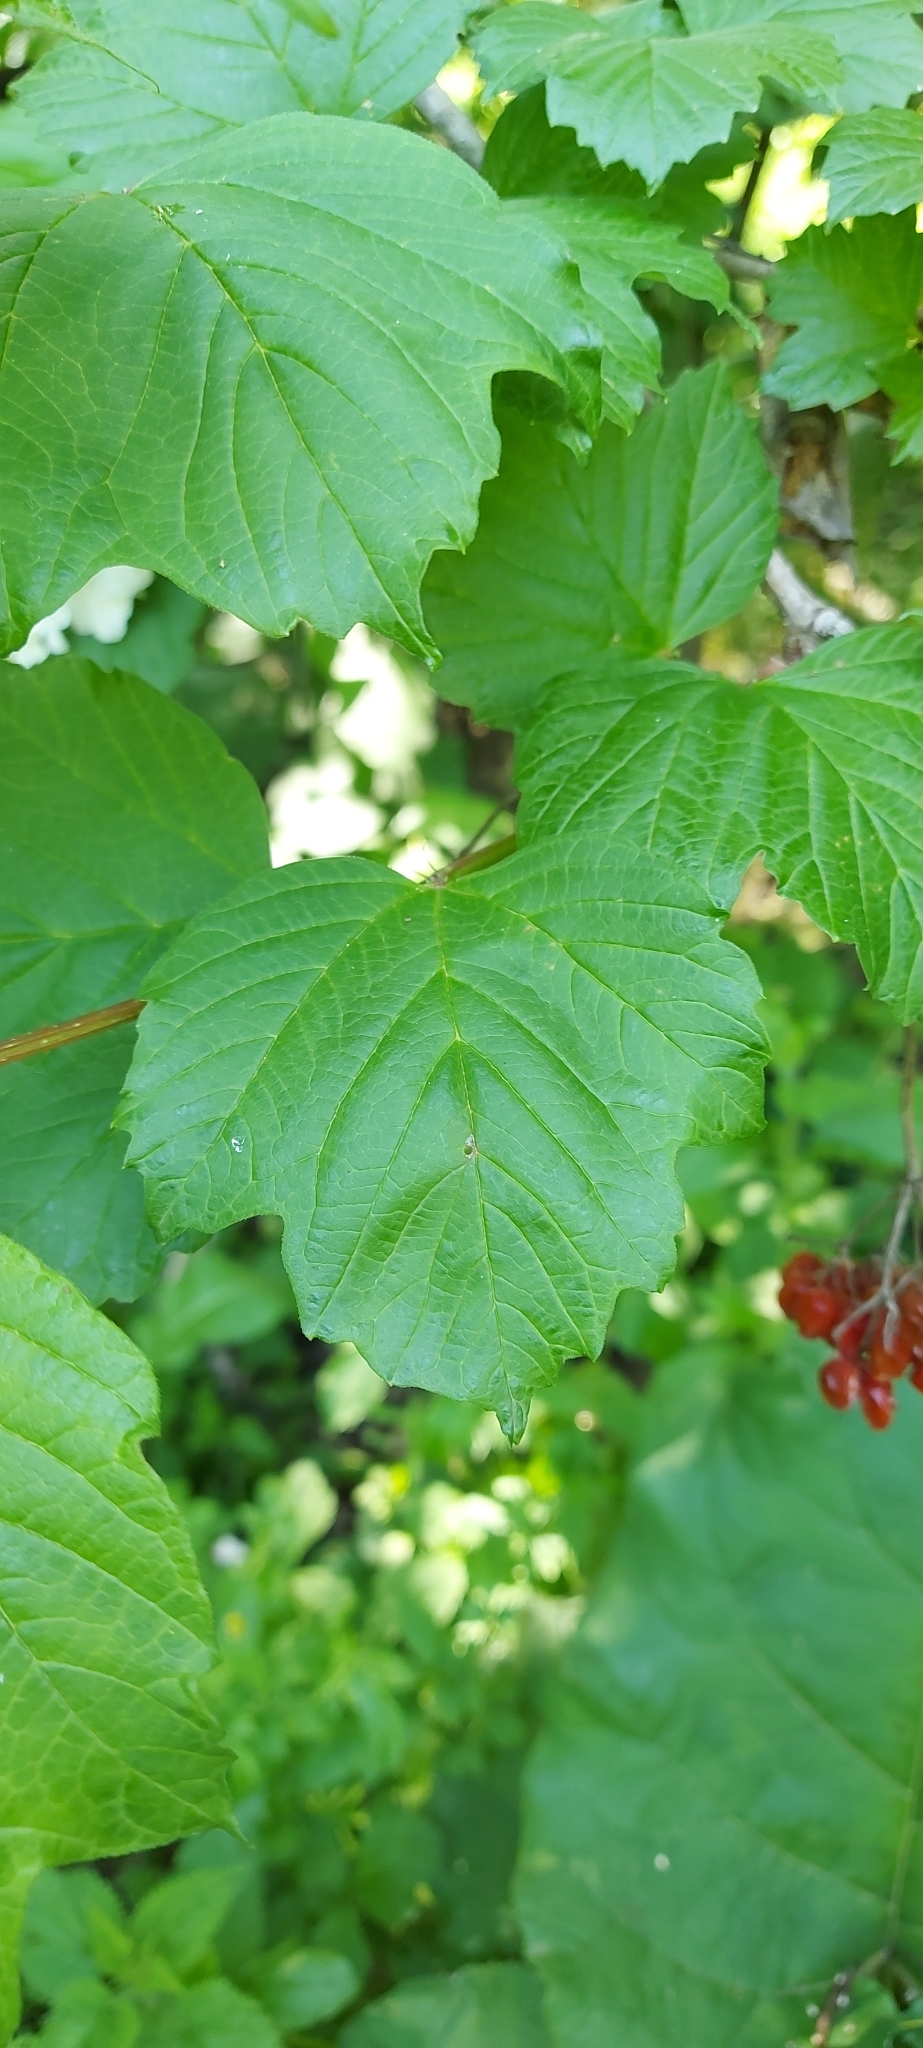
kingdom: Plantae
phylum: Tracheophyta
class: Magnoliopsida
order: Dipsacales
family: Viburnaceae
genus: Viburnum
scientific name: Viburnum opulus
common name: Guelder-rose
